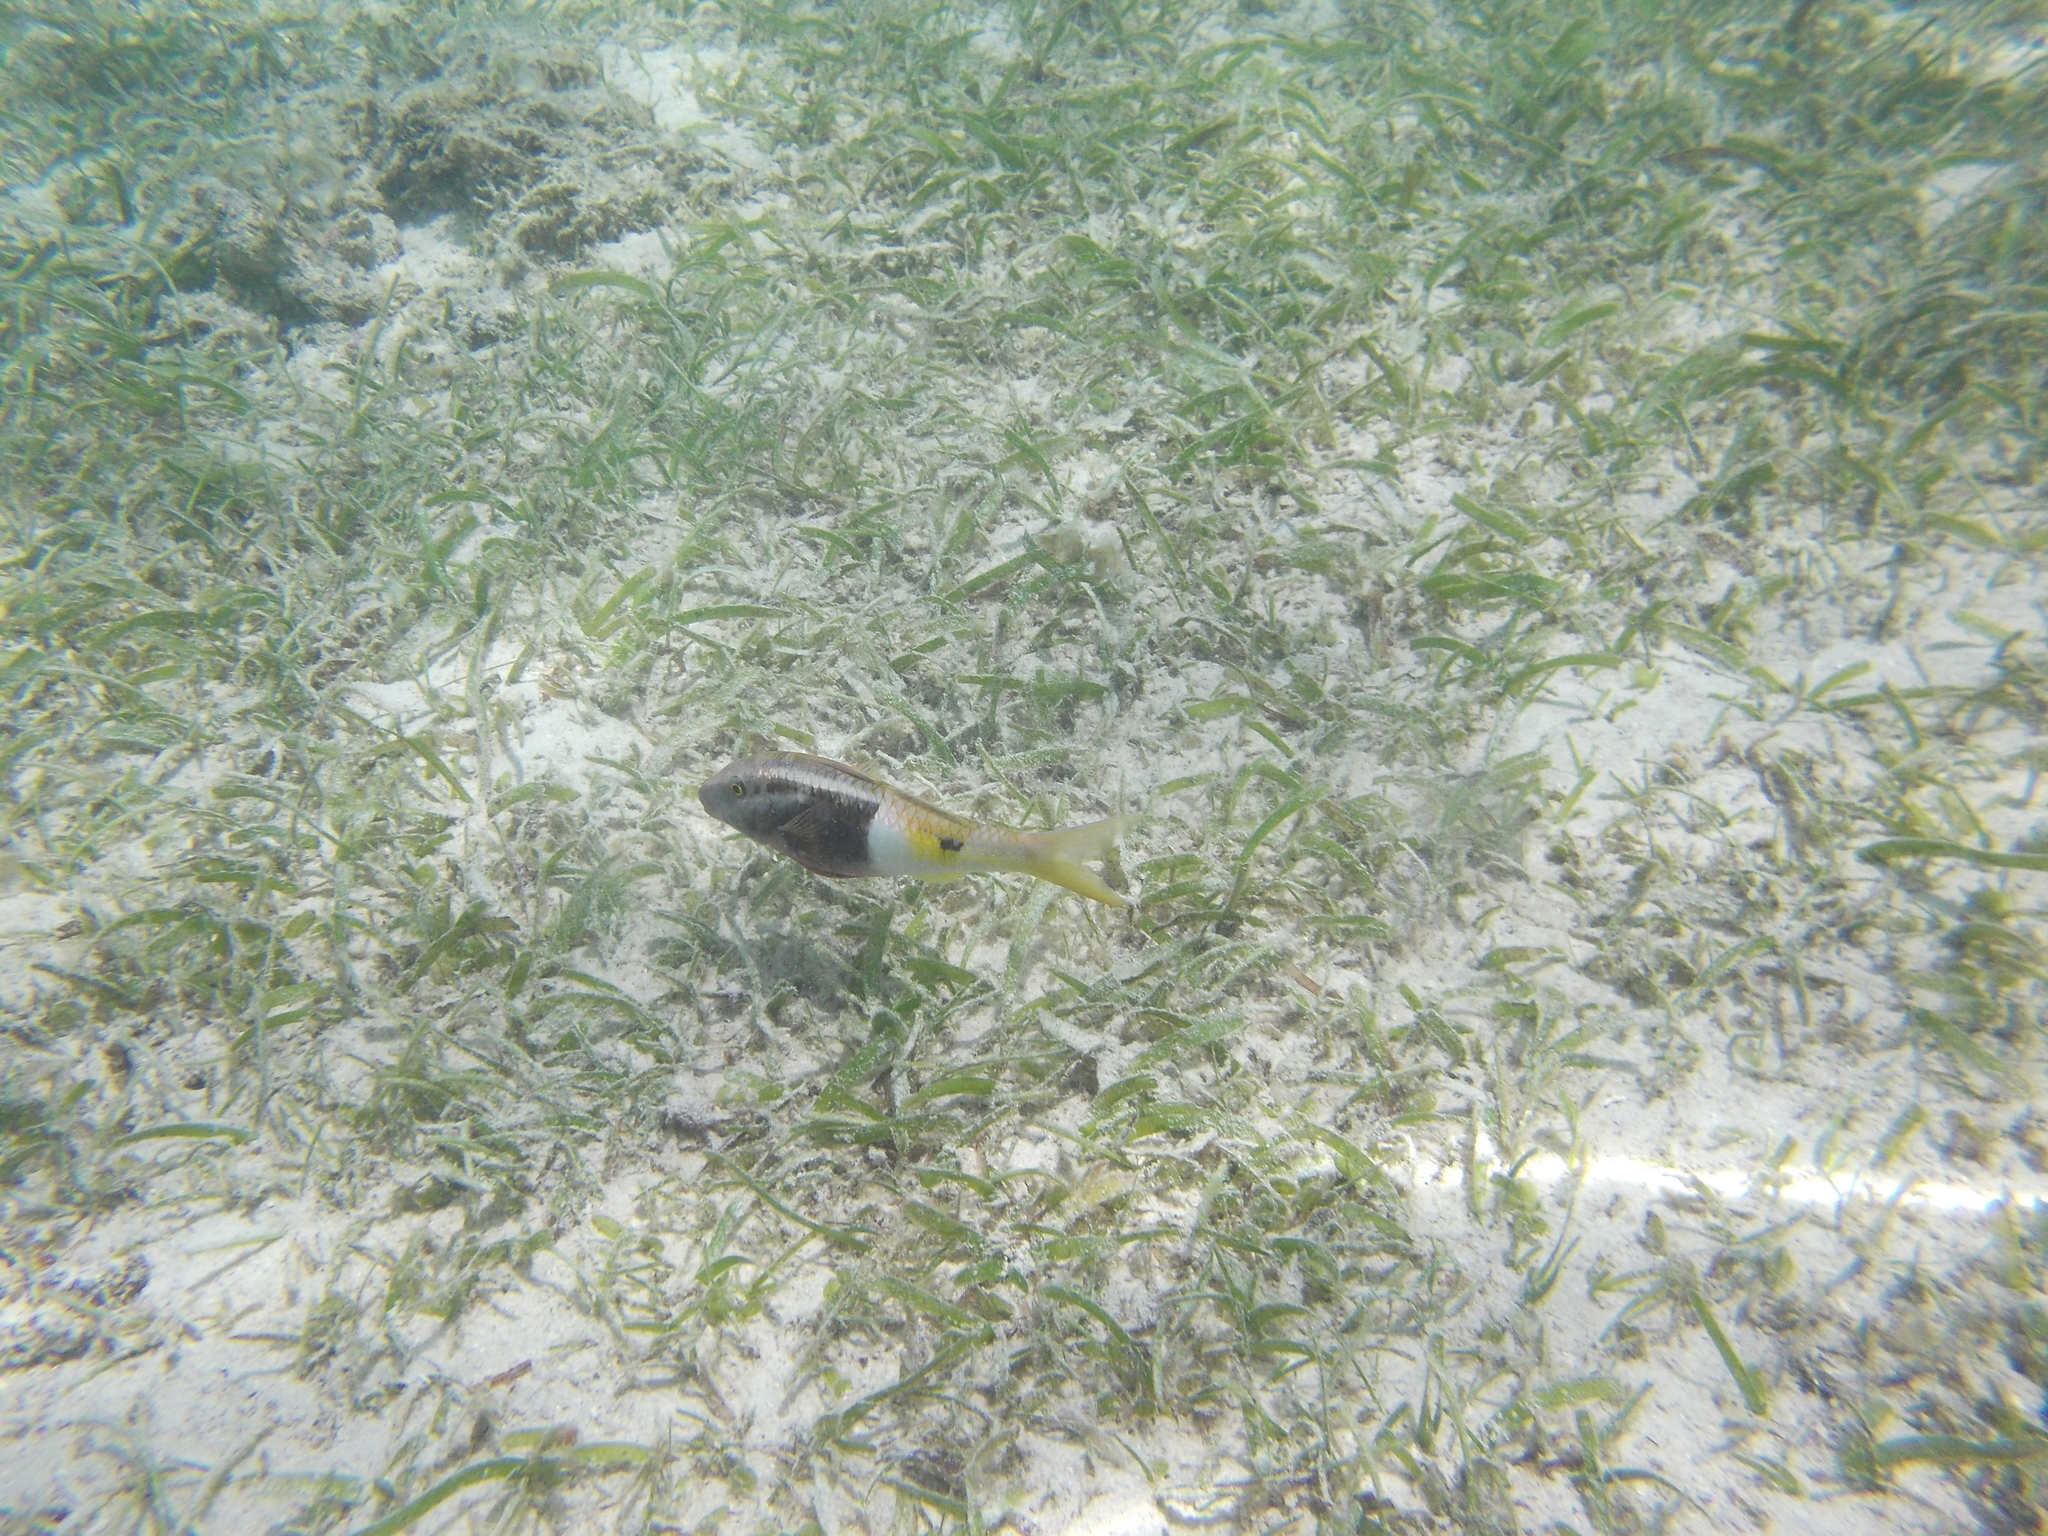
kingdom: Animalia
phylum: Chordata
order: Perciformes
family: Mullidae
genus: Parupeneus
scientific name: Parupeneus barberinoides
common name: Half-and-half goatfish
